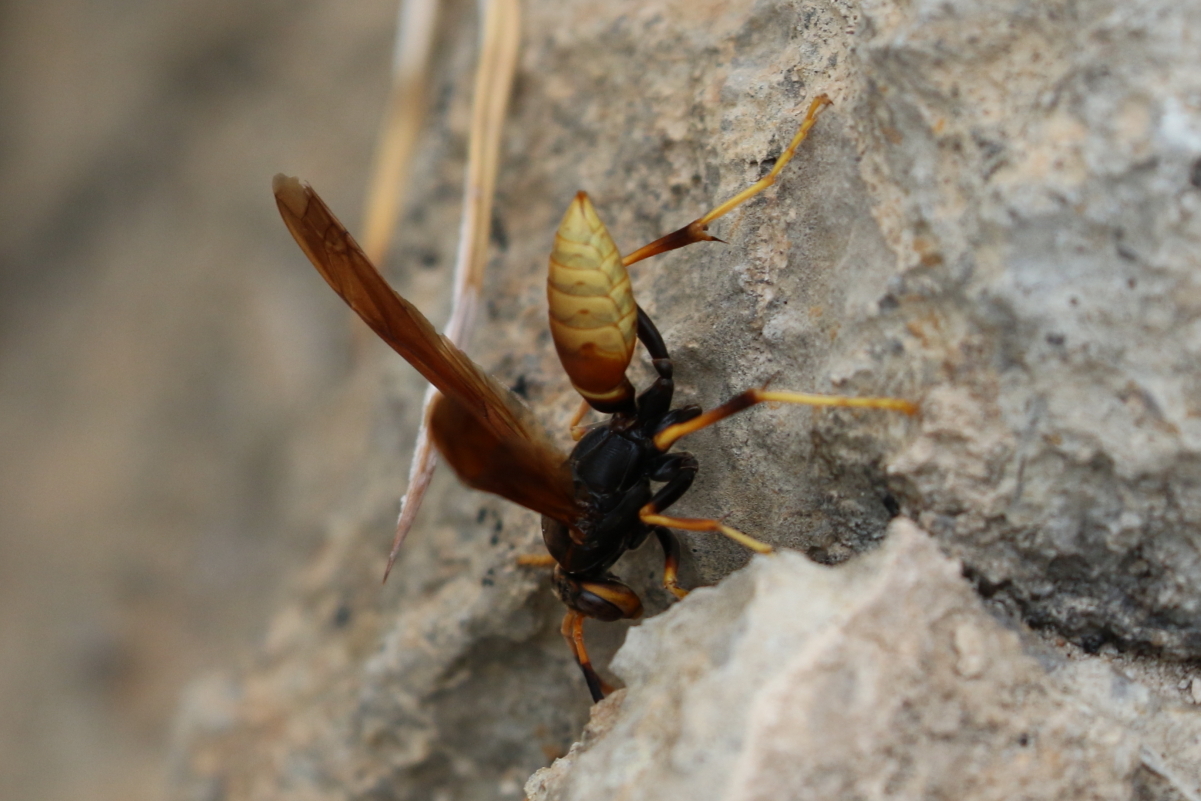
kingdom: Animalia
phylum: Arthropoda
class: Insecta
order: Hymenoptera
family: Eumenidae
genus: Polistes
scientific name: Polistes comanchus
